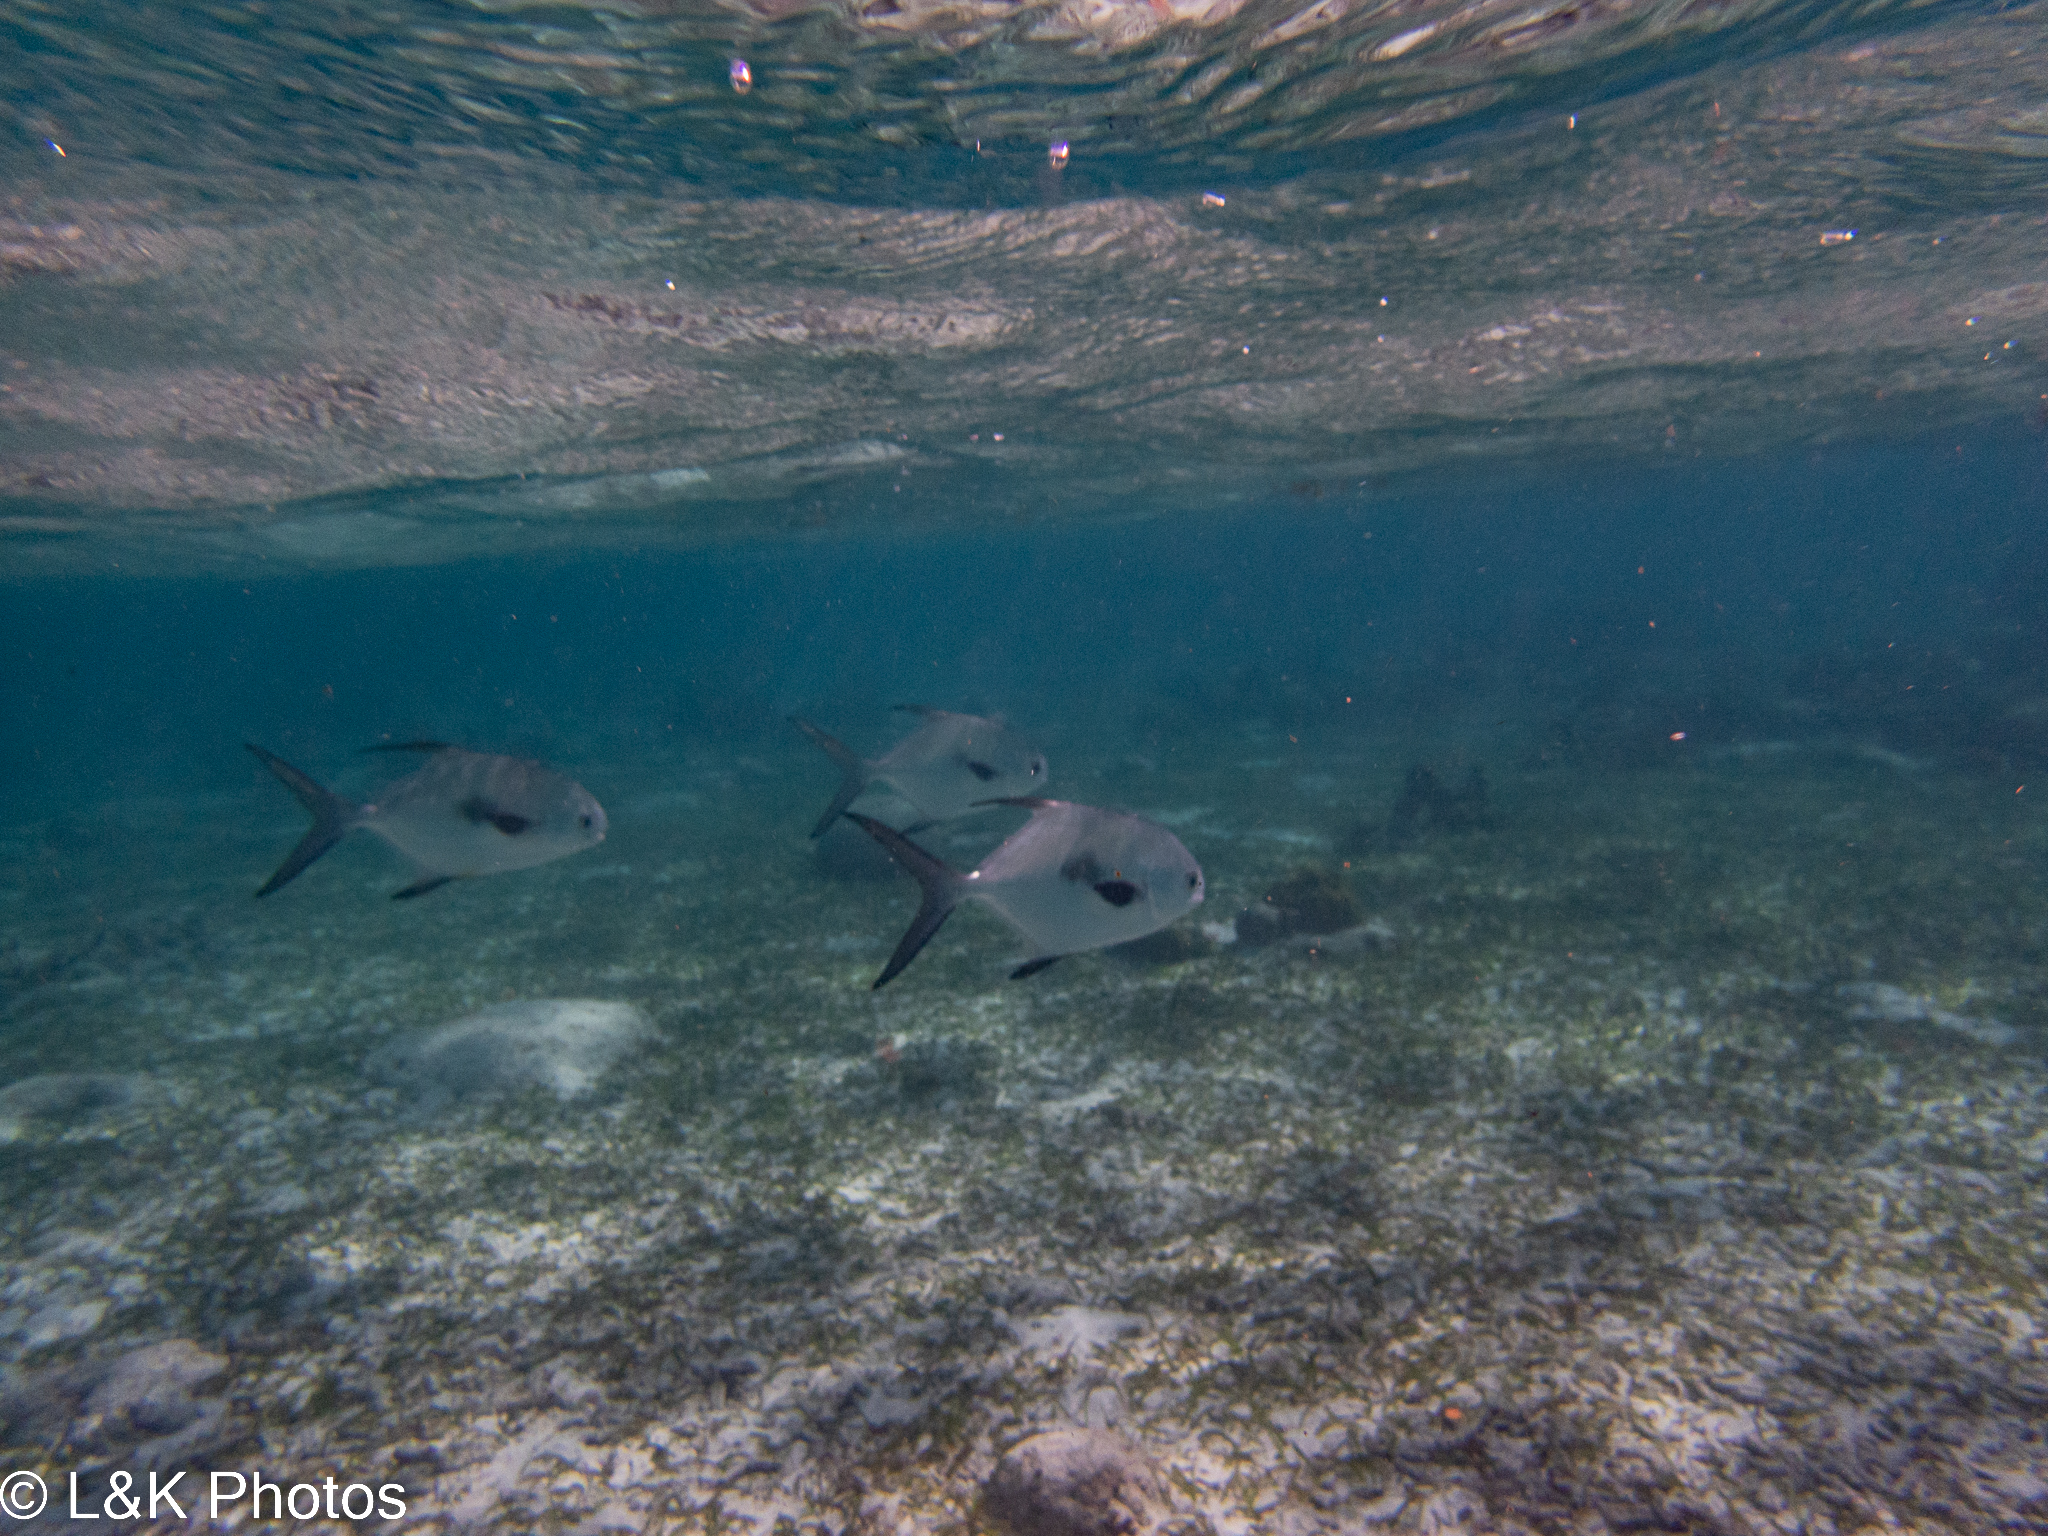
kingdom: Animalia
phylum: Chordata
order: Perciformes
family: Carangidae
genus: Trachinotus
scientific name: Trachinotus falcatus
